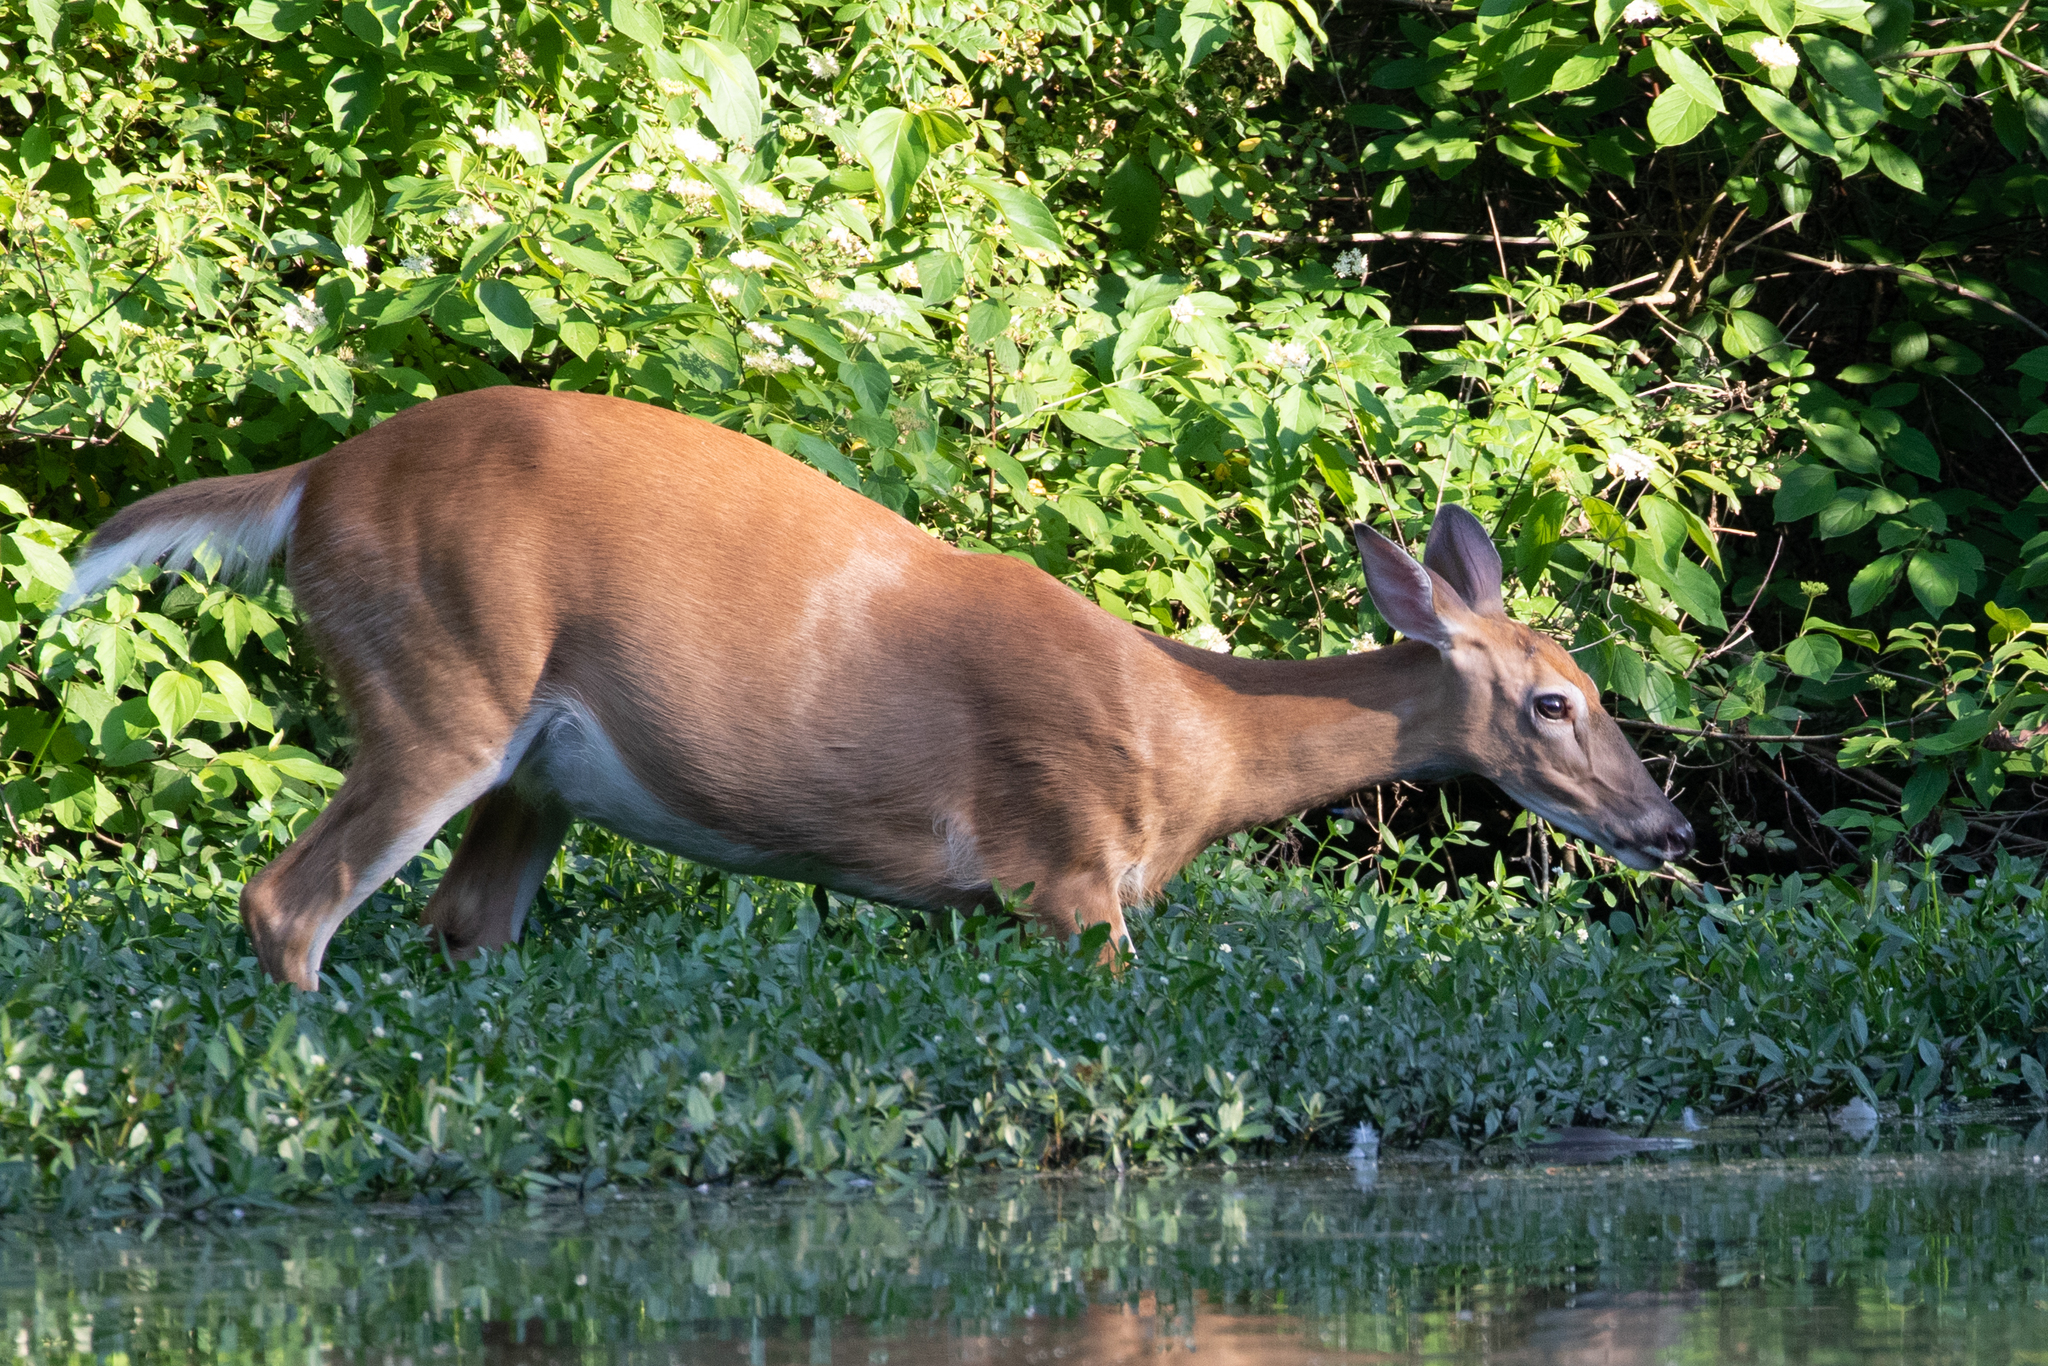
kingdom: Animalia
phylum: Chordata
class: Mammalia
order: Artiodactyla
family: Cervidae
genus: Odocoileus
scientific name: Odocoileus virginianus
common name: White-tailed deer
